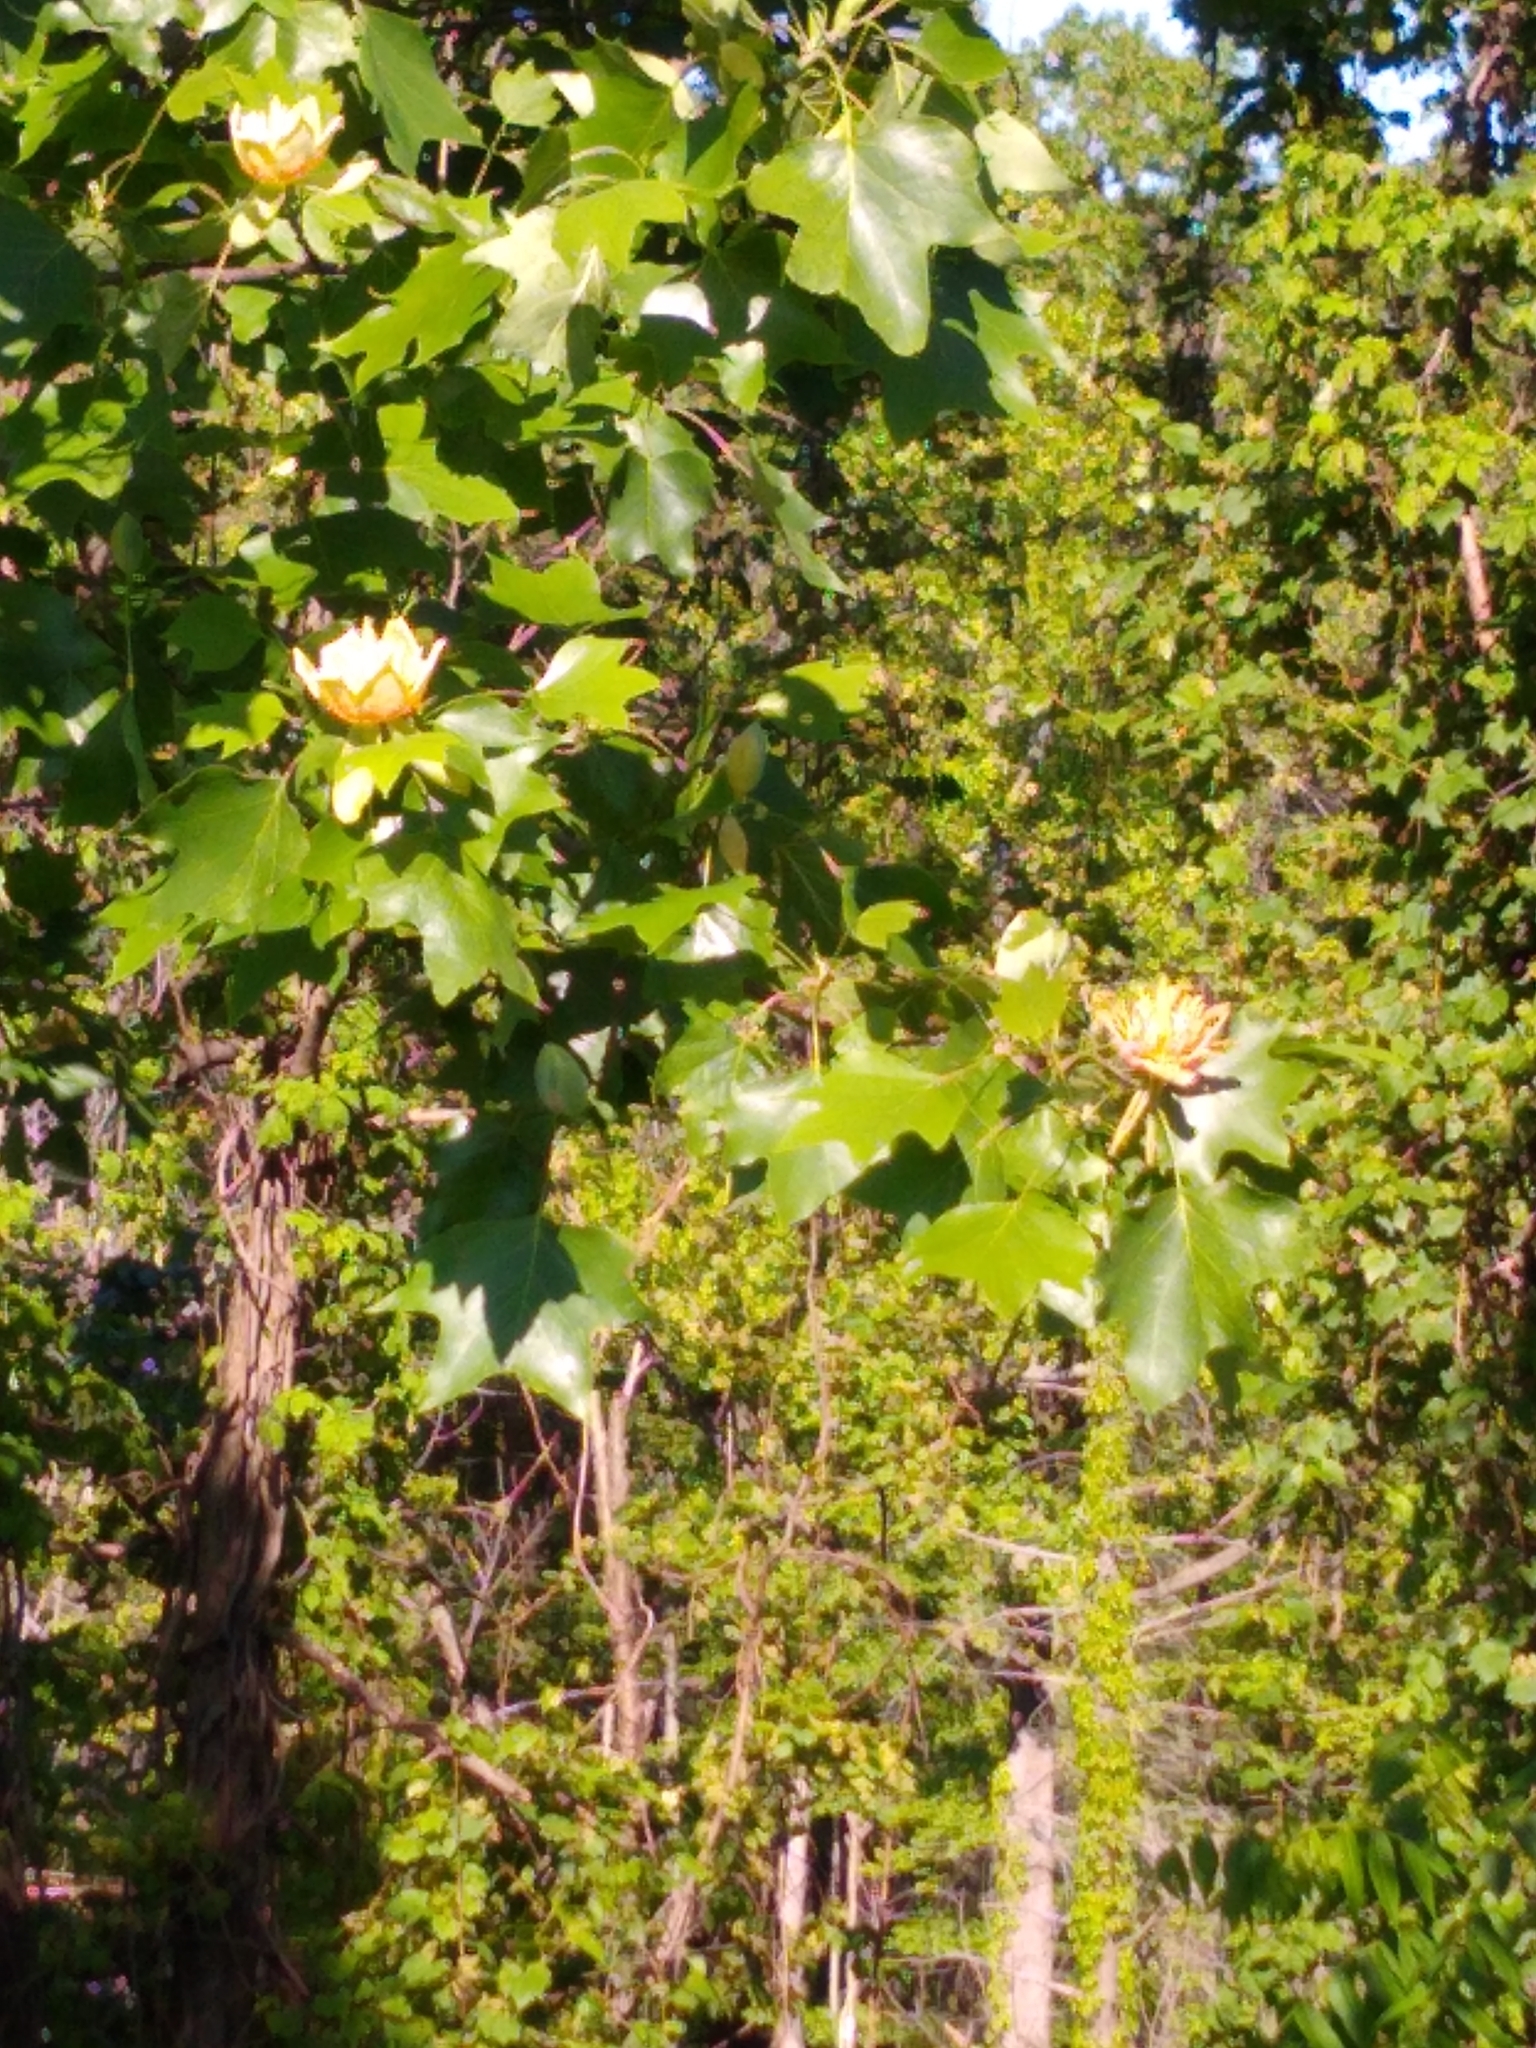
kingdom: Plantae
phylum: Tracheophyta
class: Magnoliopsida
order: Magnoliales
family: Magnoliaceae
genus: Liriodendron
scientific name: Liriodendron tulipifera
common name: Tulip tree
